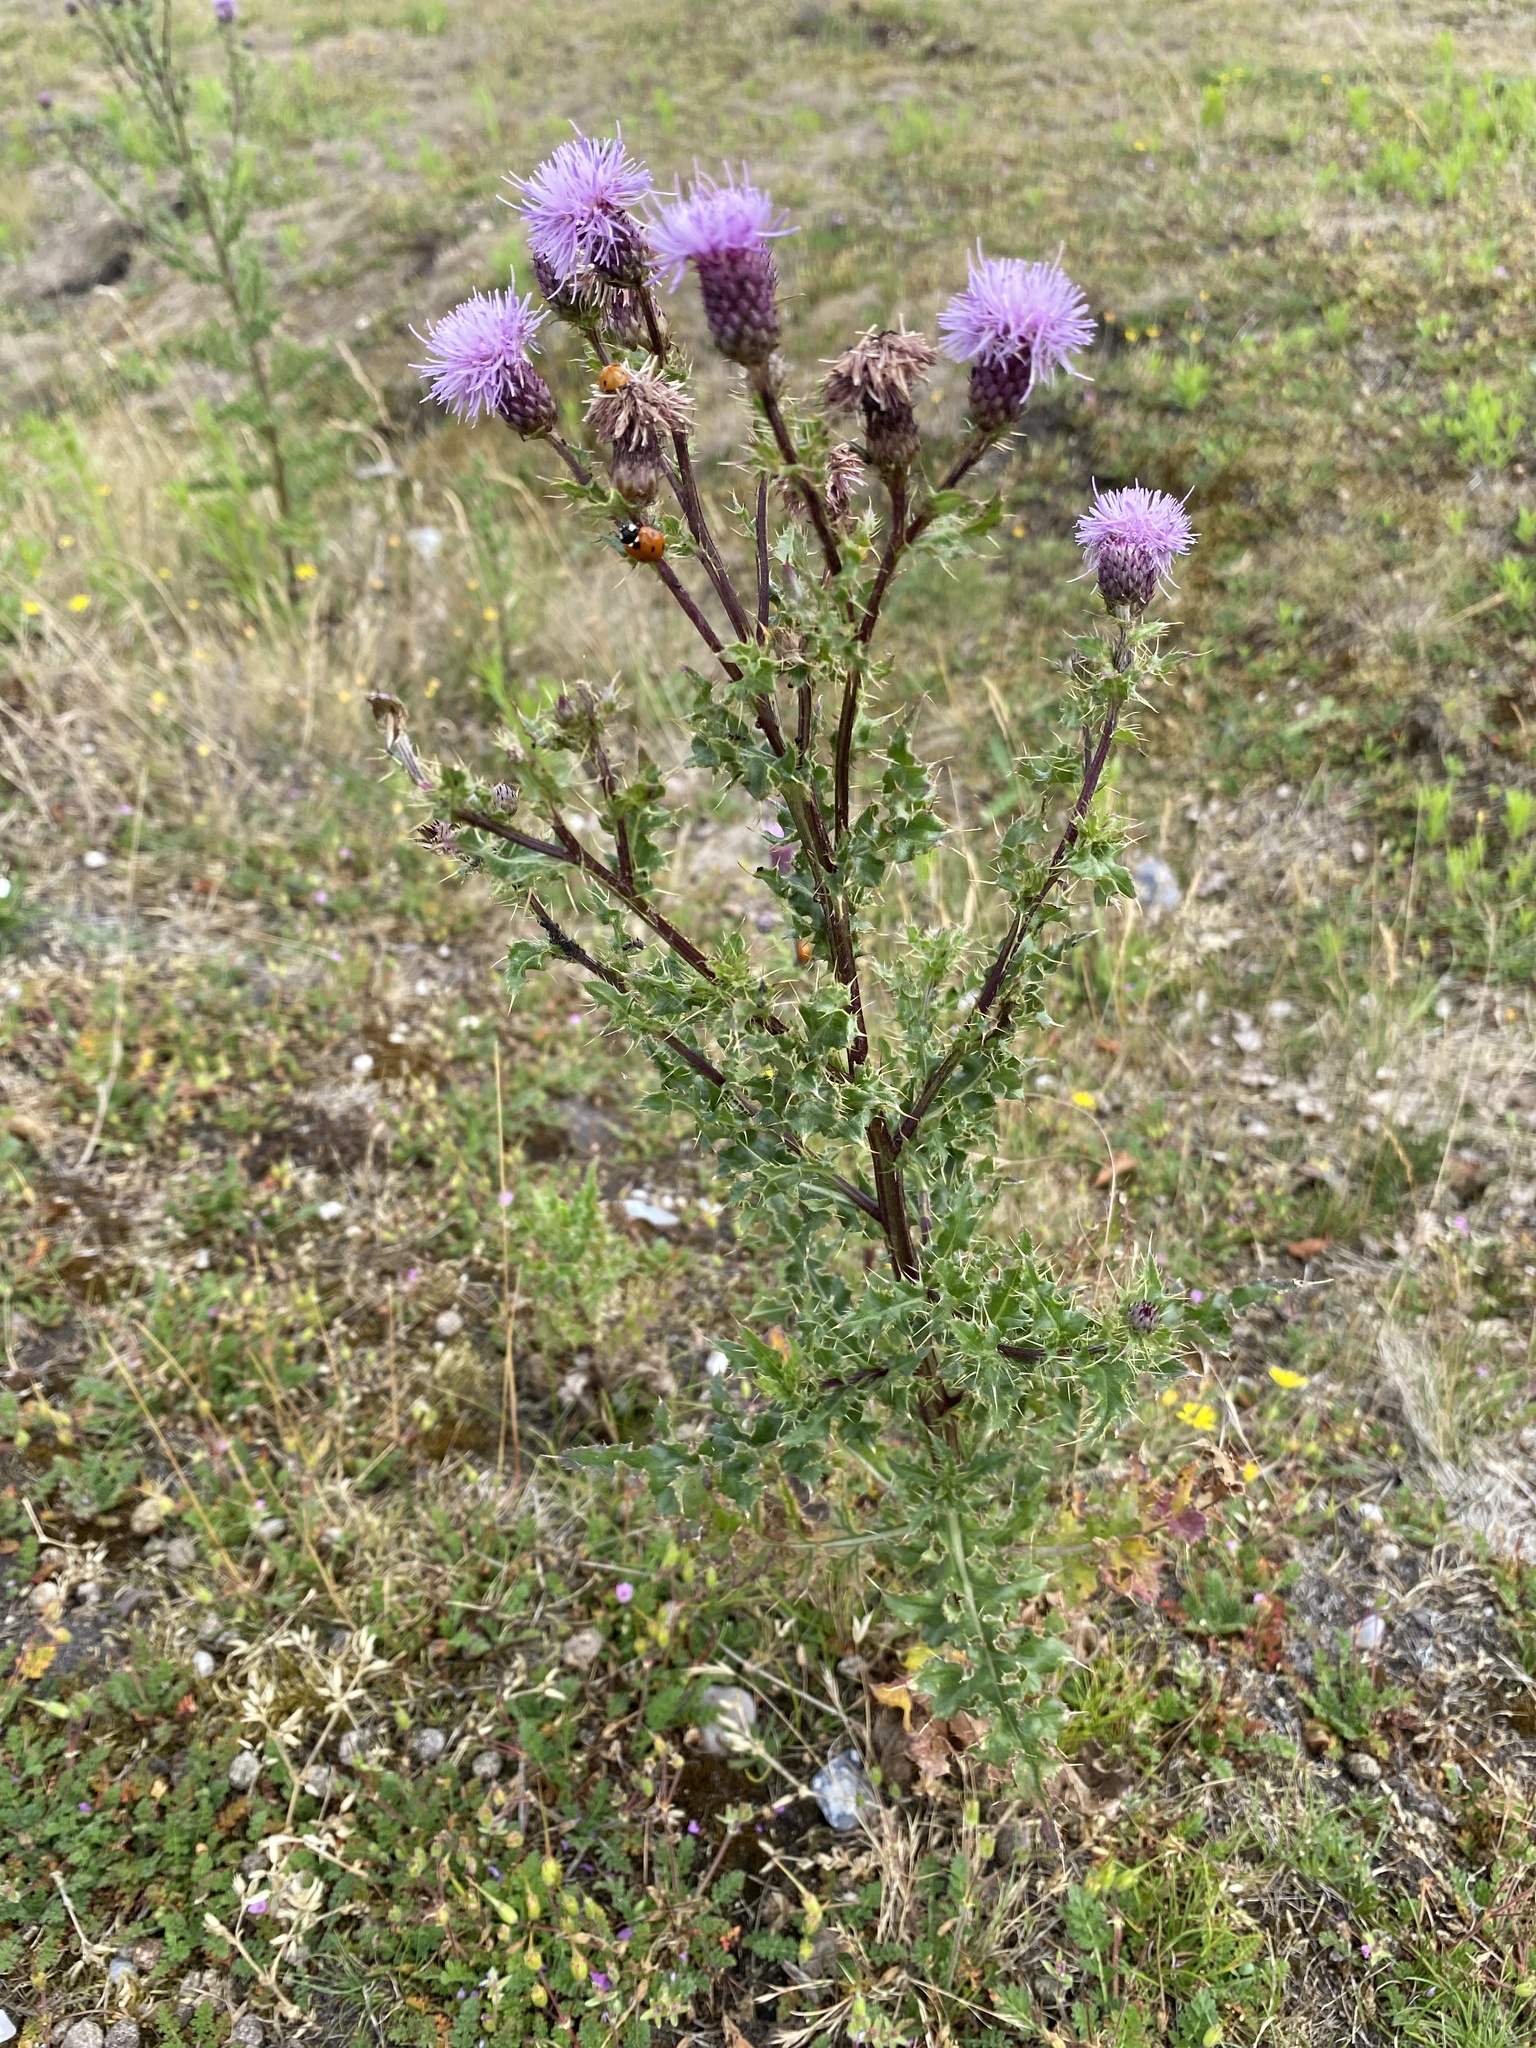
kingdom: Plantae
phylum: Tracheophyta
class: Magnoliopsida
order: Asterales
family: Asteraceae
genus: Cirsium
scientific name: Cirsium arvense
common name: Creeping thistle
